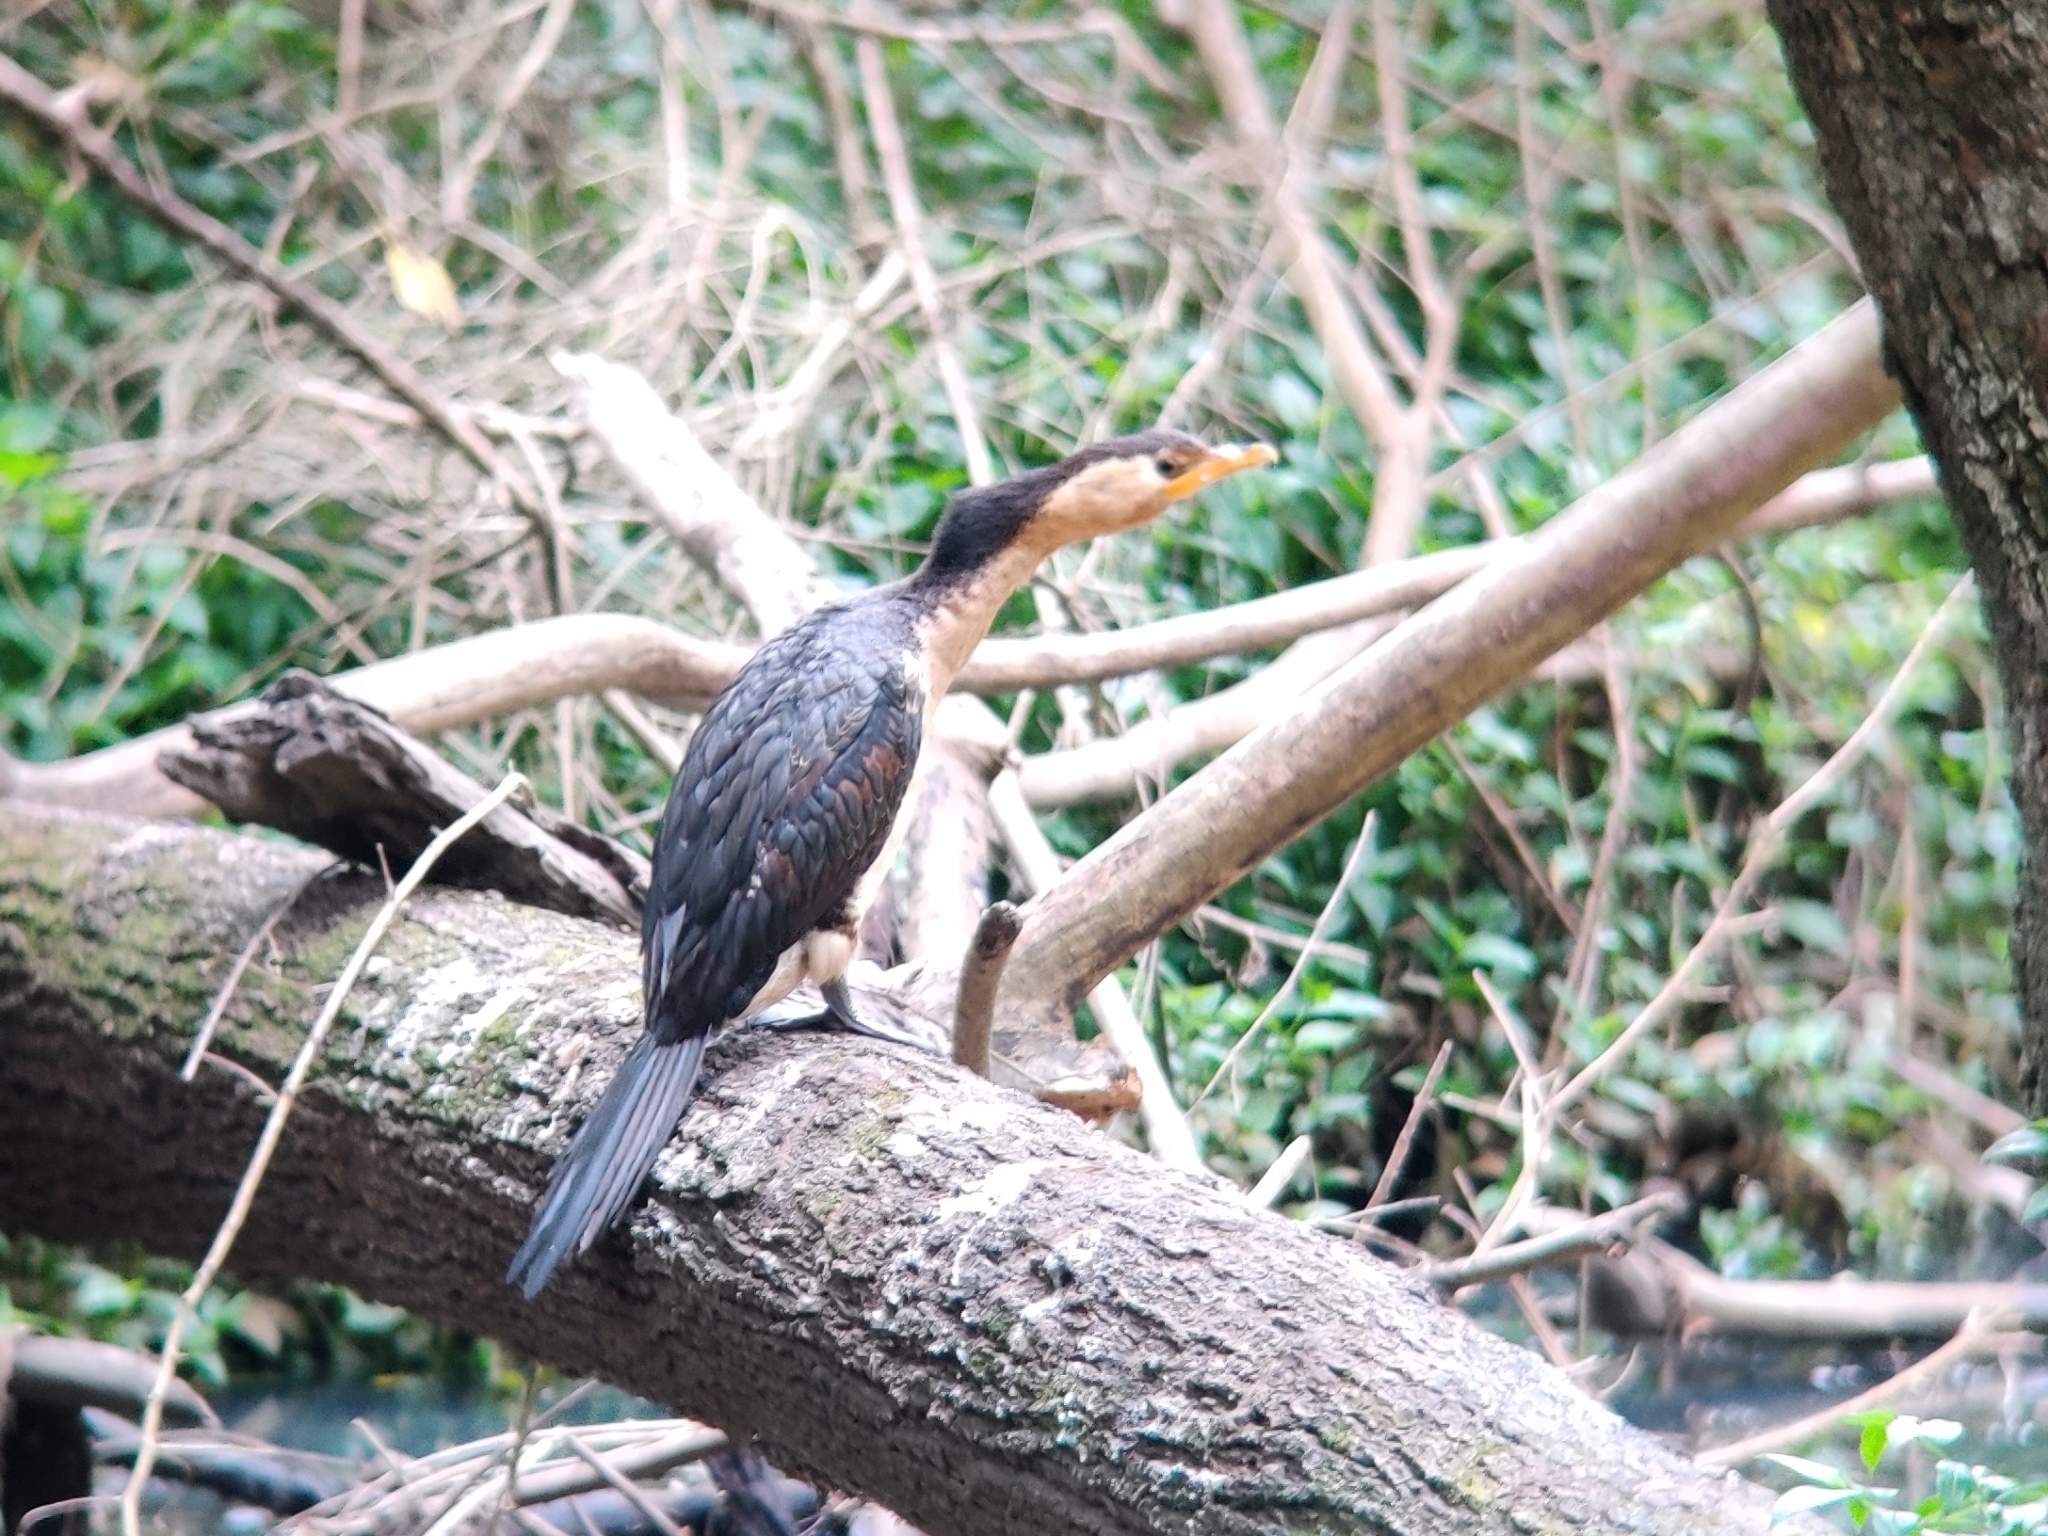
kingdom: Animalia
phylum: Chordata
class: Aves
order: Suliformes
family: Phalacrocoracidae
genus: Microcarbo
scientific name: Microcarbo melanoleucos
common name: Little pied cormorant
